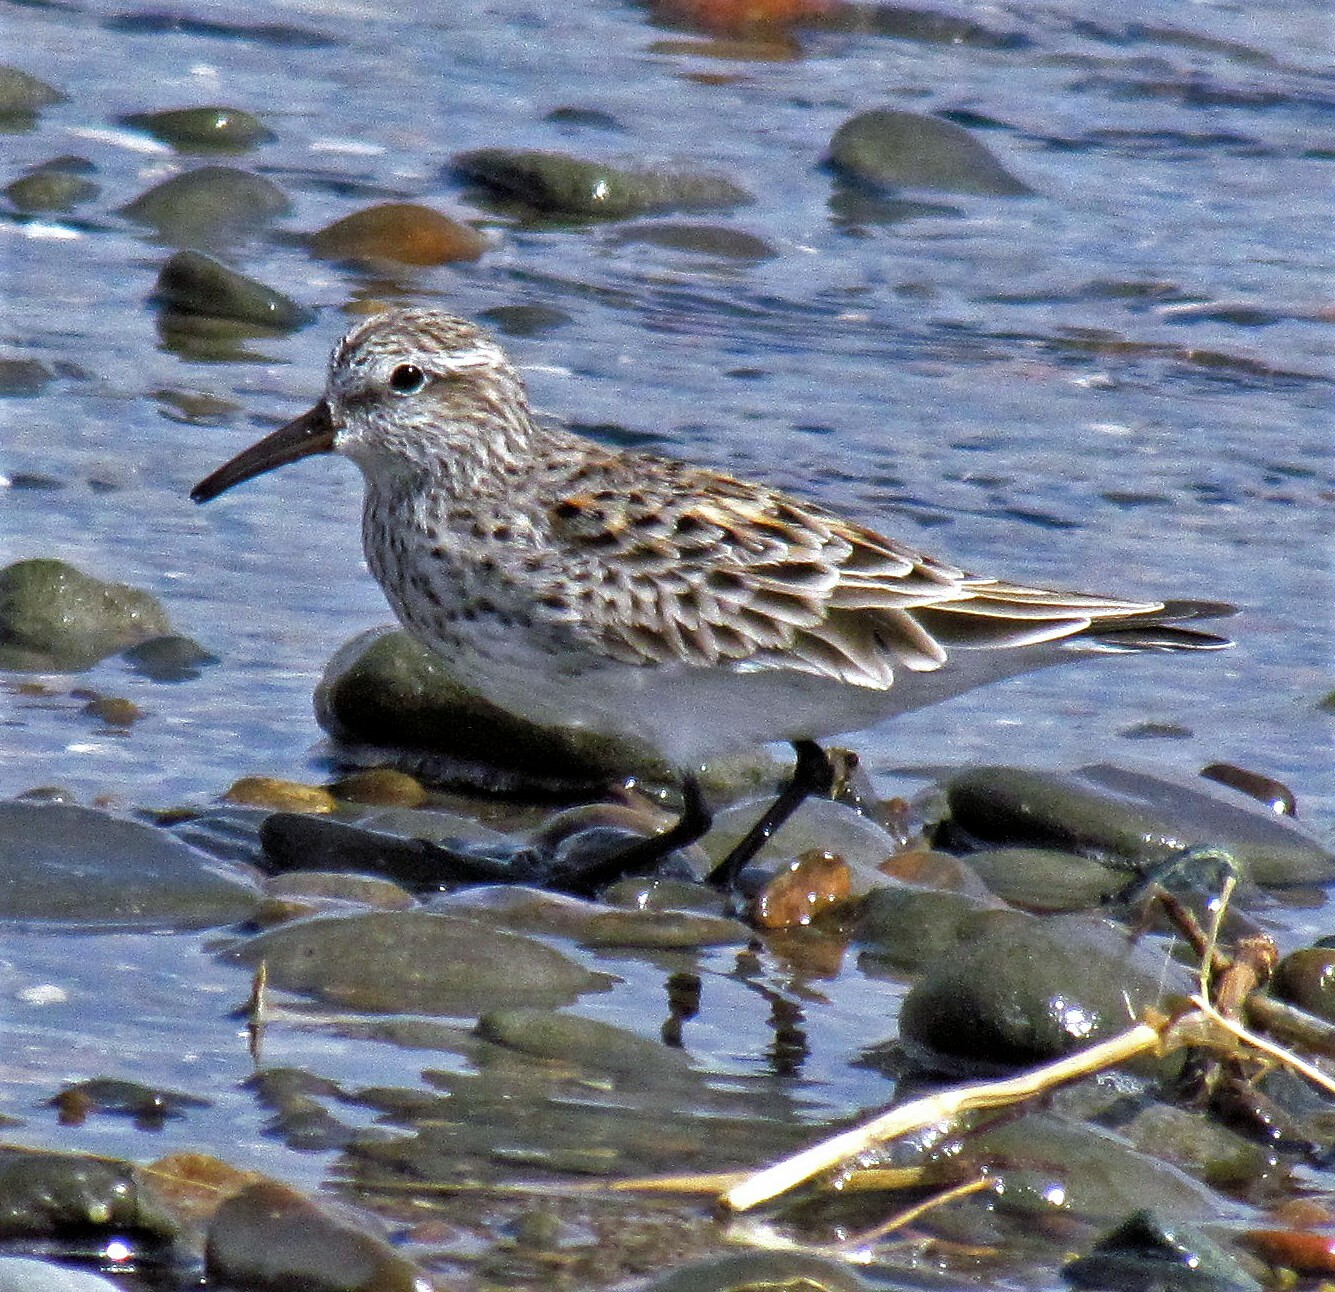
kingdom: Animalia
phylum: Chordata
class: Aves
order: Charadriiformes
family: Scolopacidae
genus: Calidris
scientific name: Calidris fuscicollis
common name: White-rumped sandpiper
